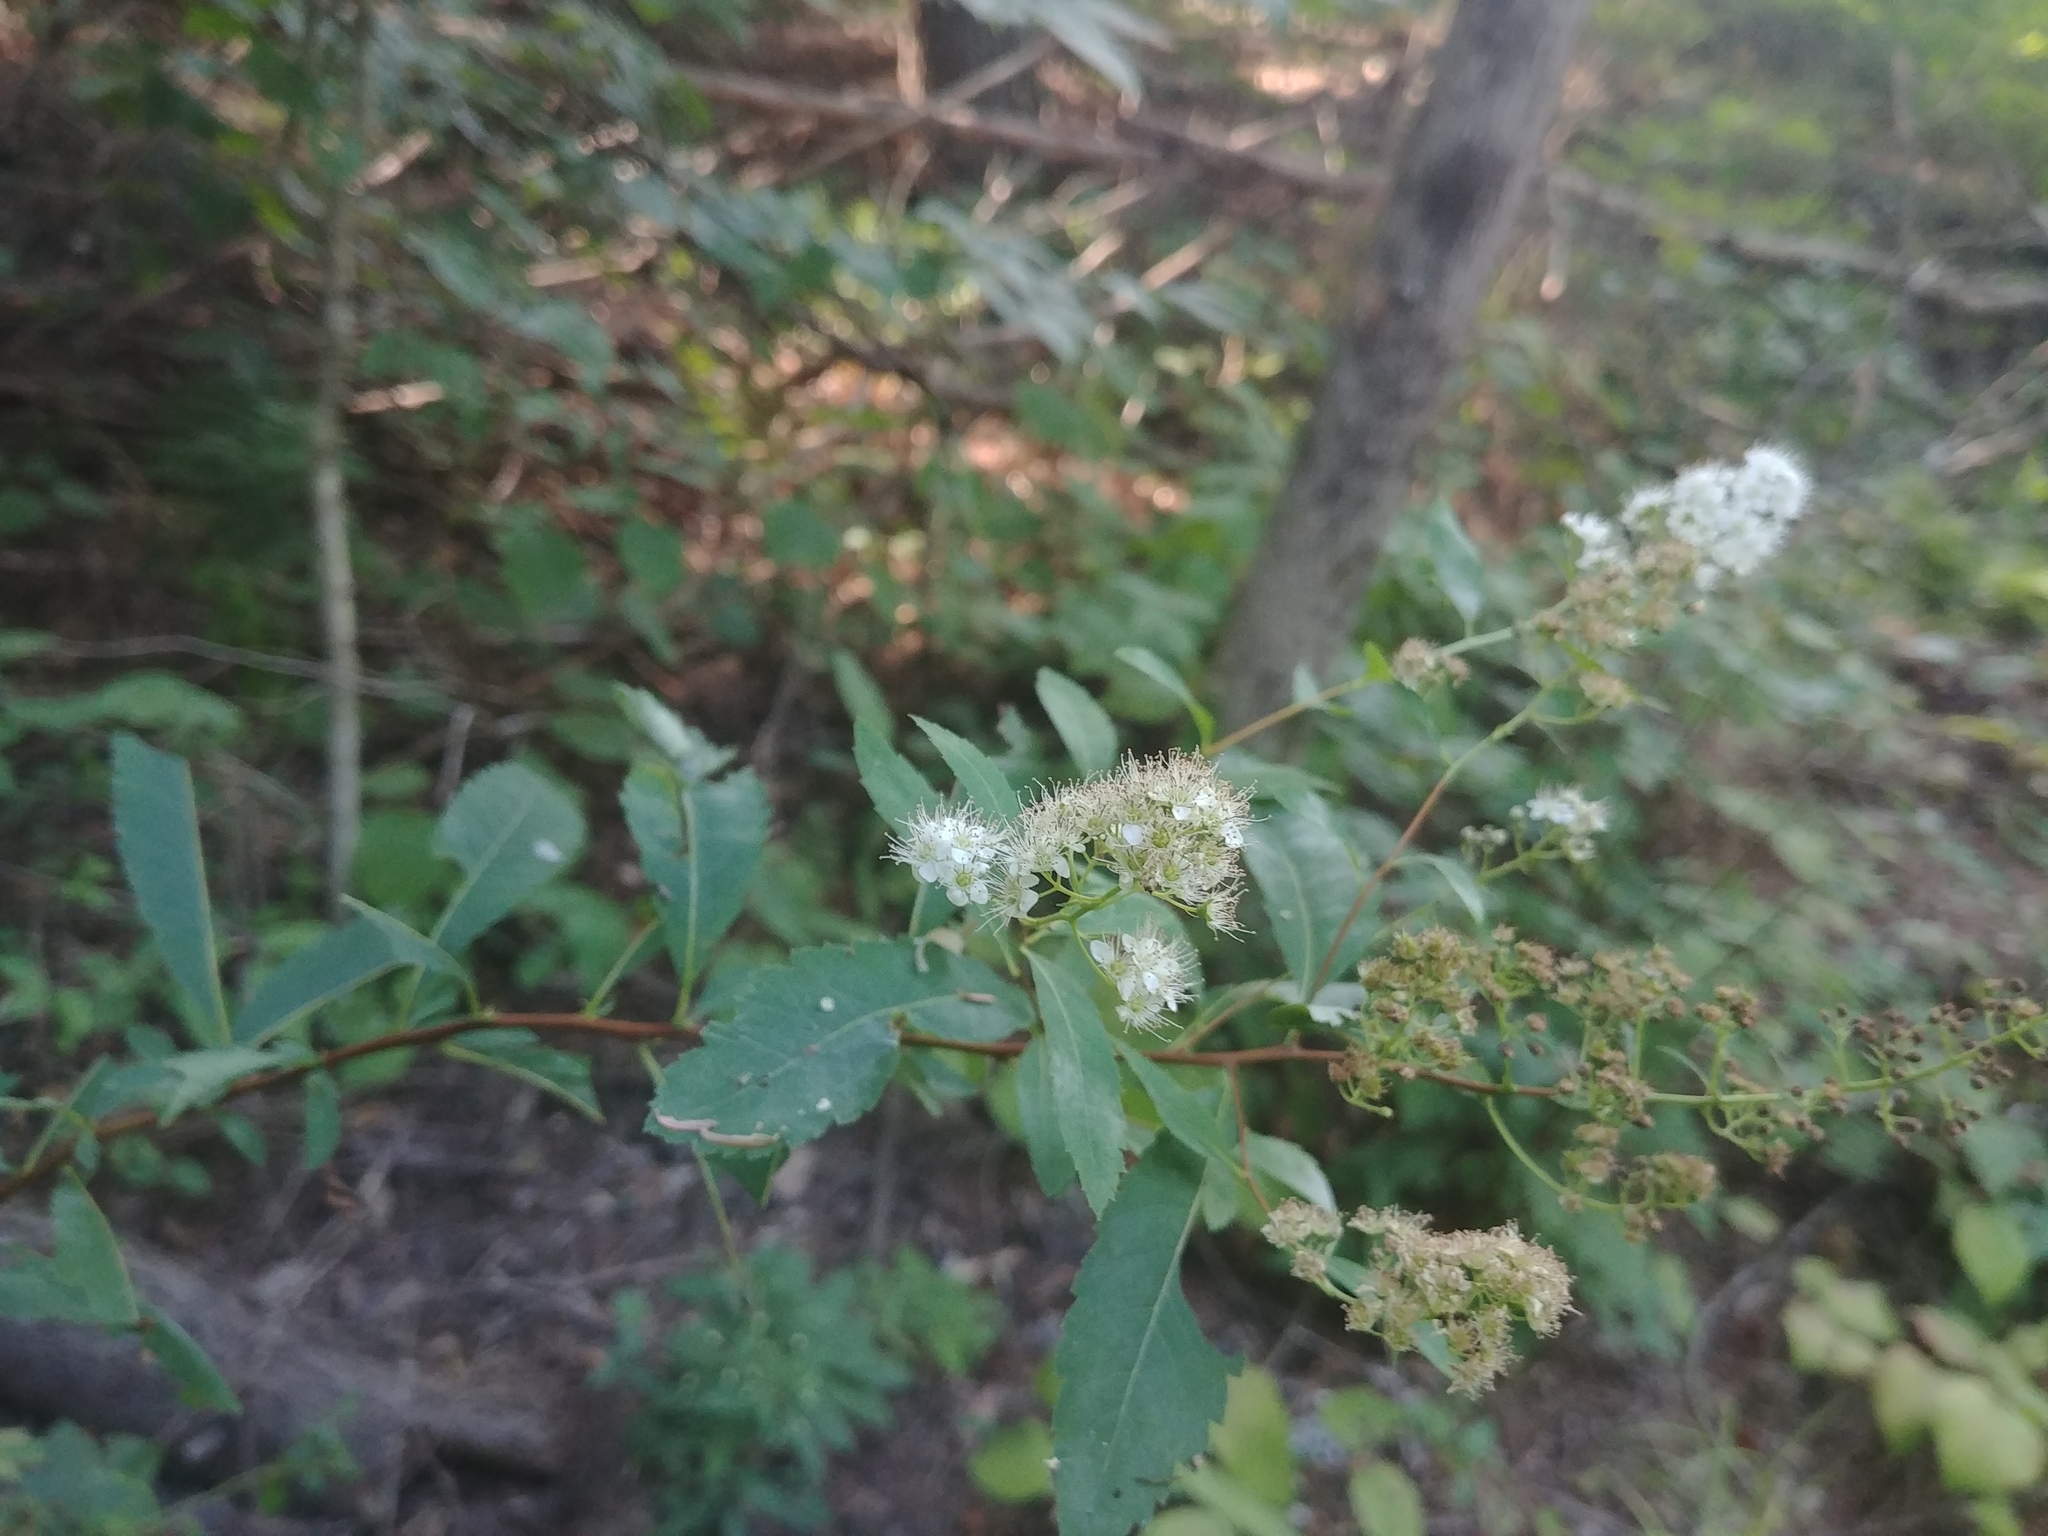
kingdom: Plantae
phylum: Tracheophyta
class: Magnoliopsida
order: Rosales
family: Rosaceae
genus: Spiraea
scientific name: Spiraea alba
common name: Pale bridewort
